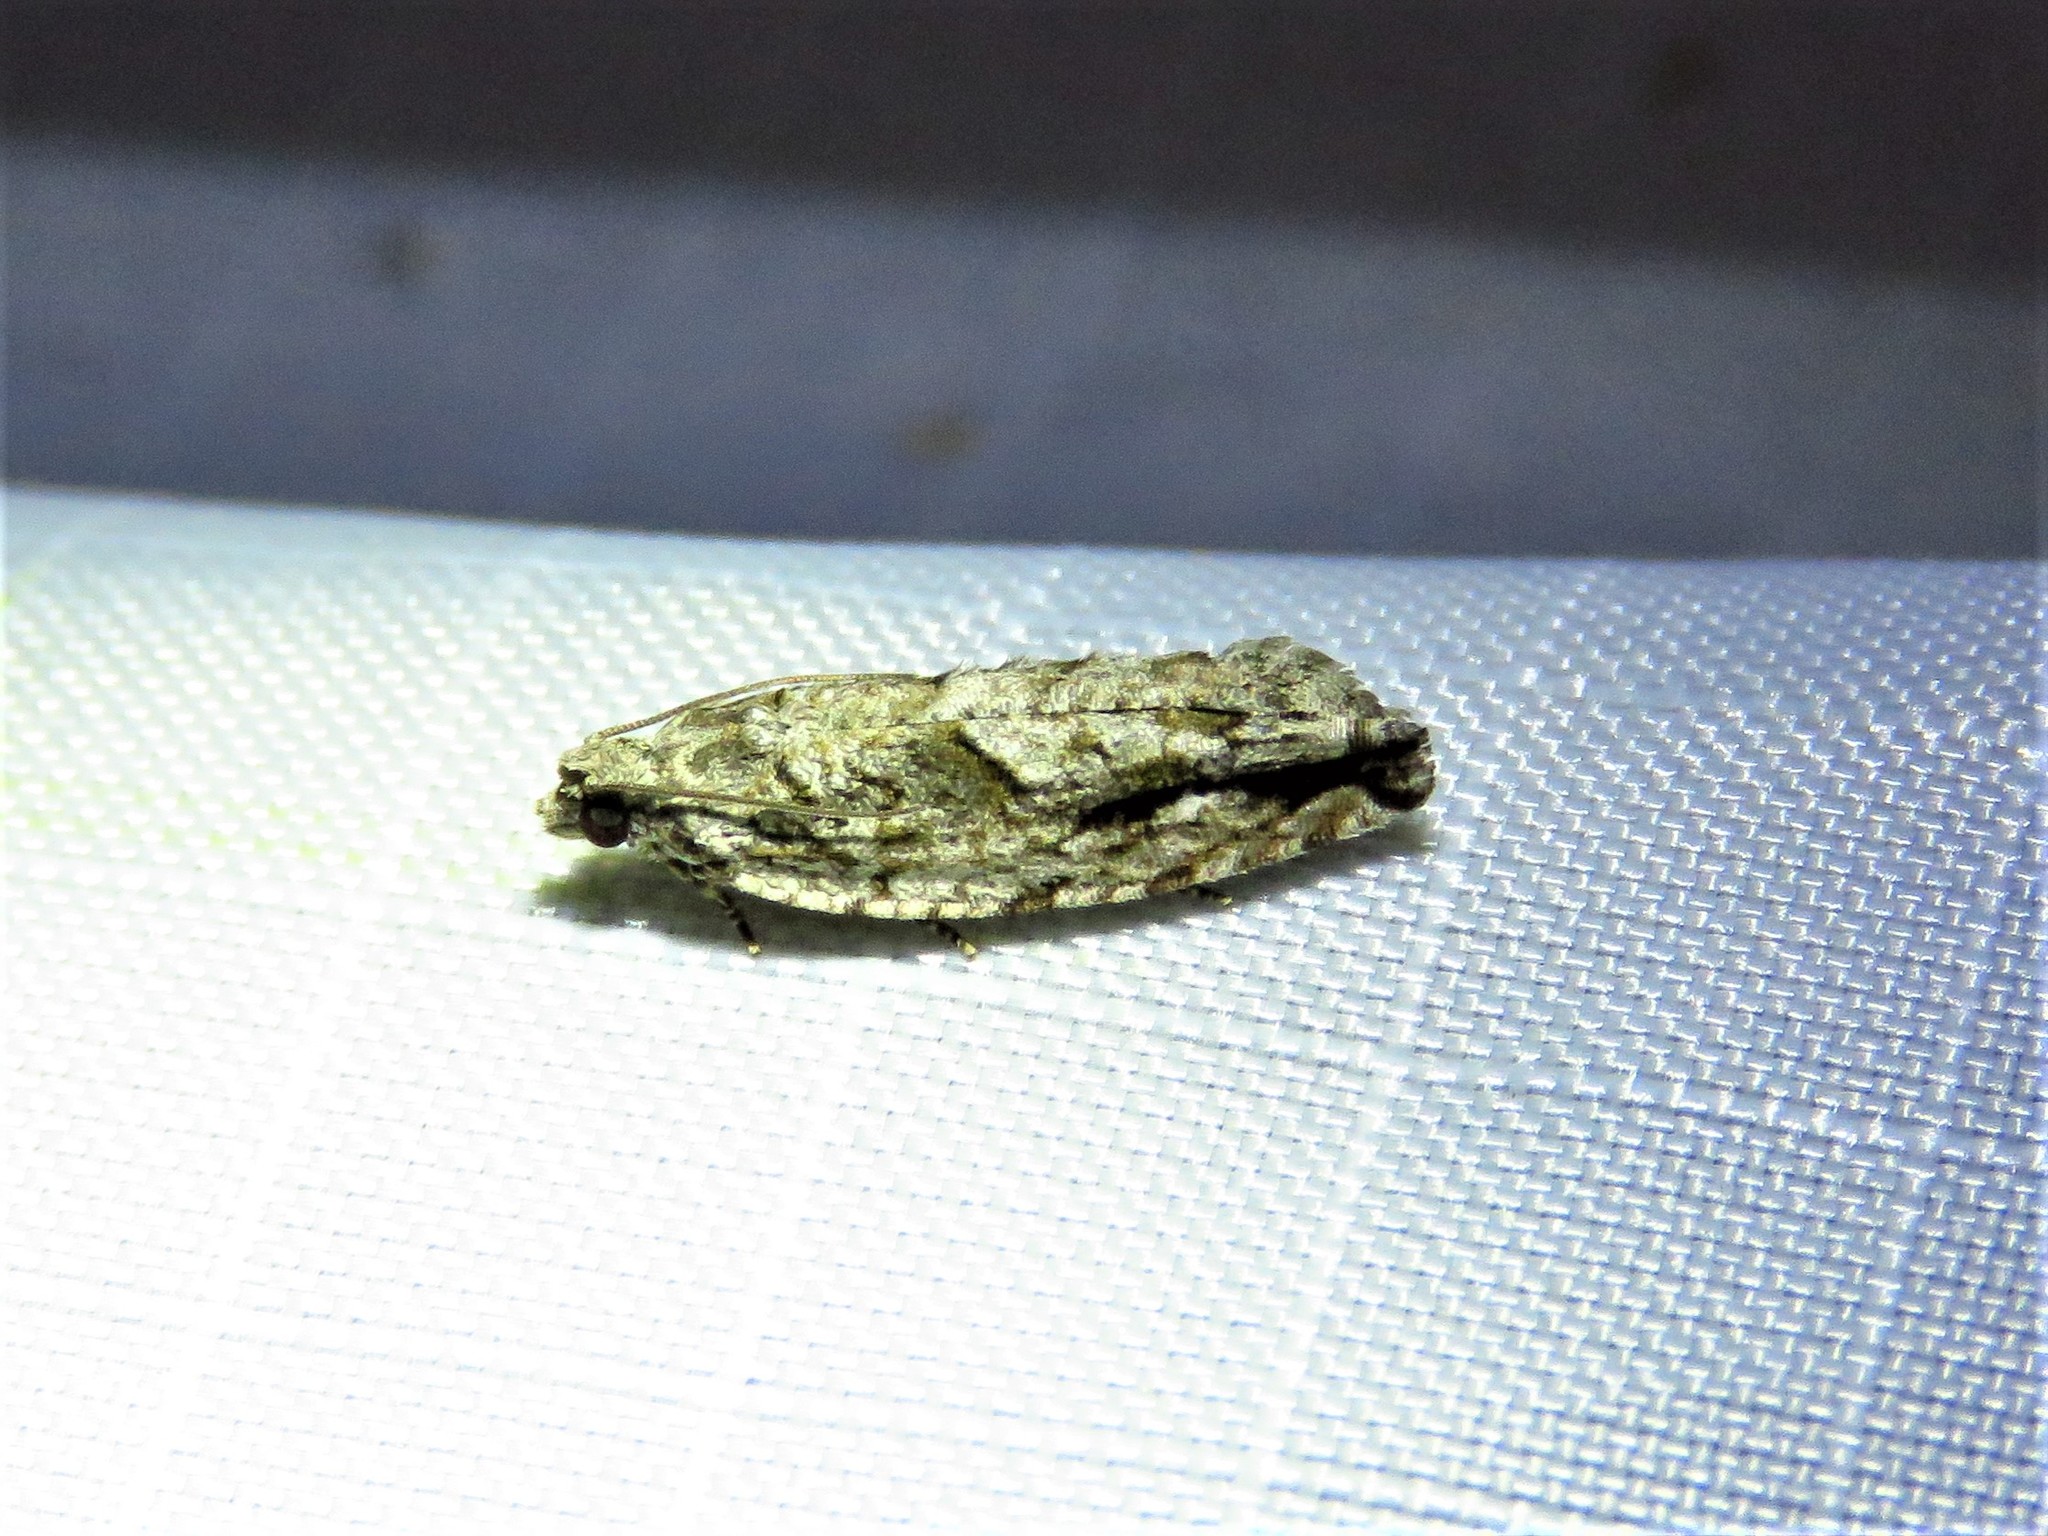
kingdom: Animalia
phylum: Arthropoda
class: Insecta
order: Lepidoptera
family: Tortricidae
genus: Gretchena
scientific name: Gretchena bolliana
